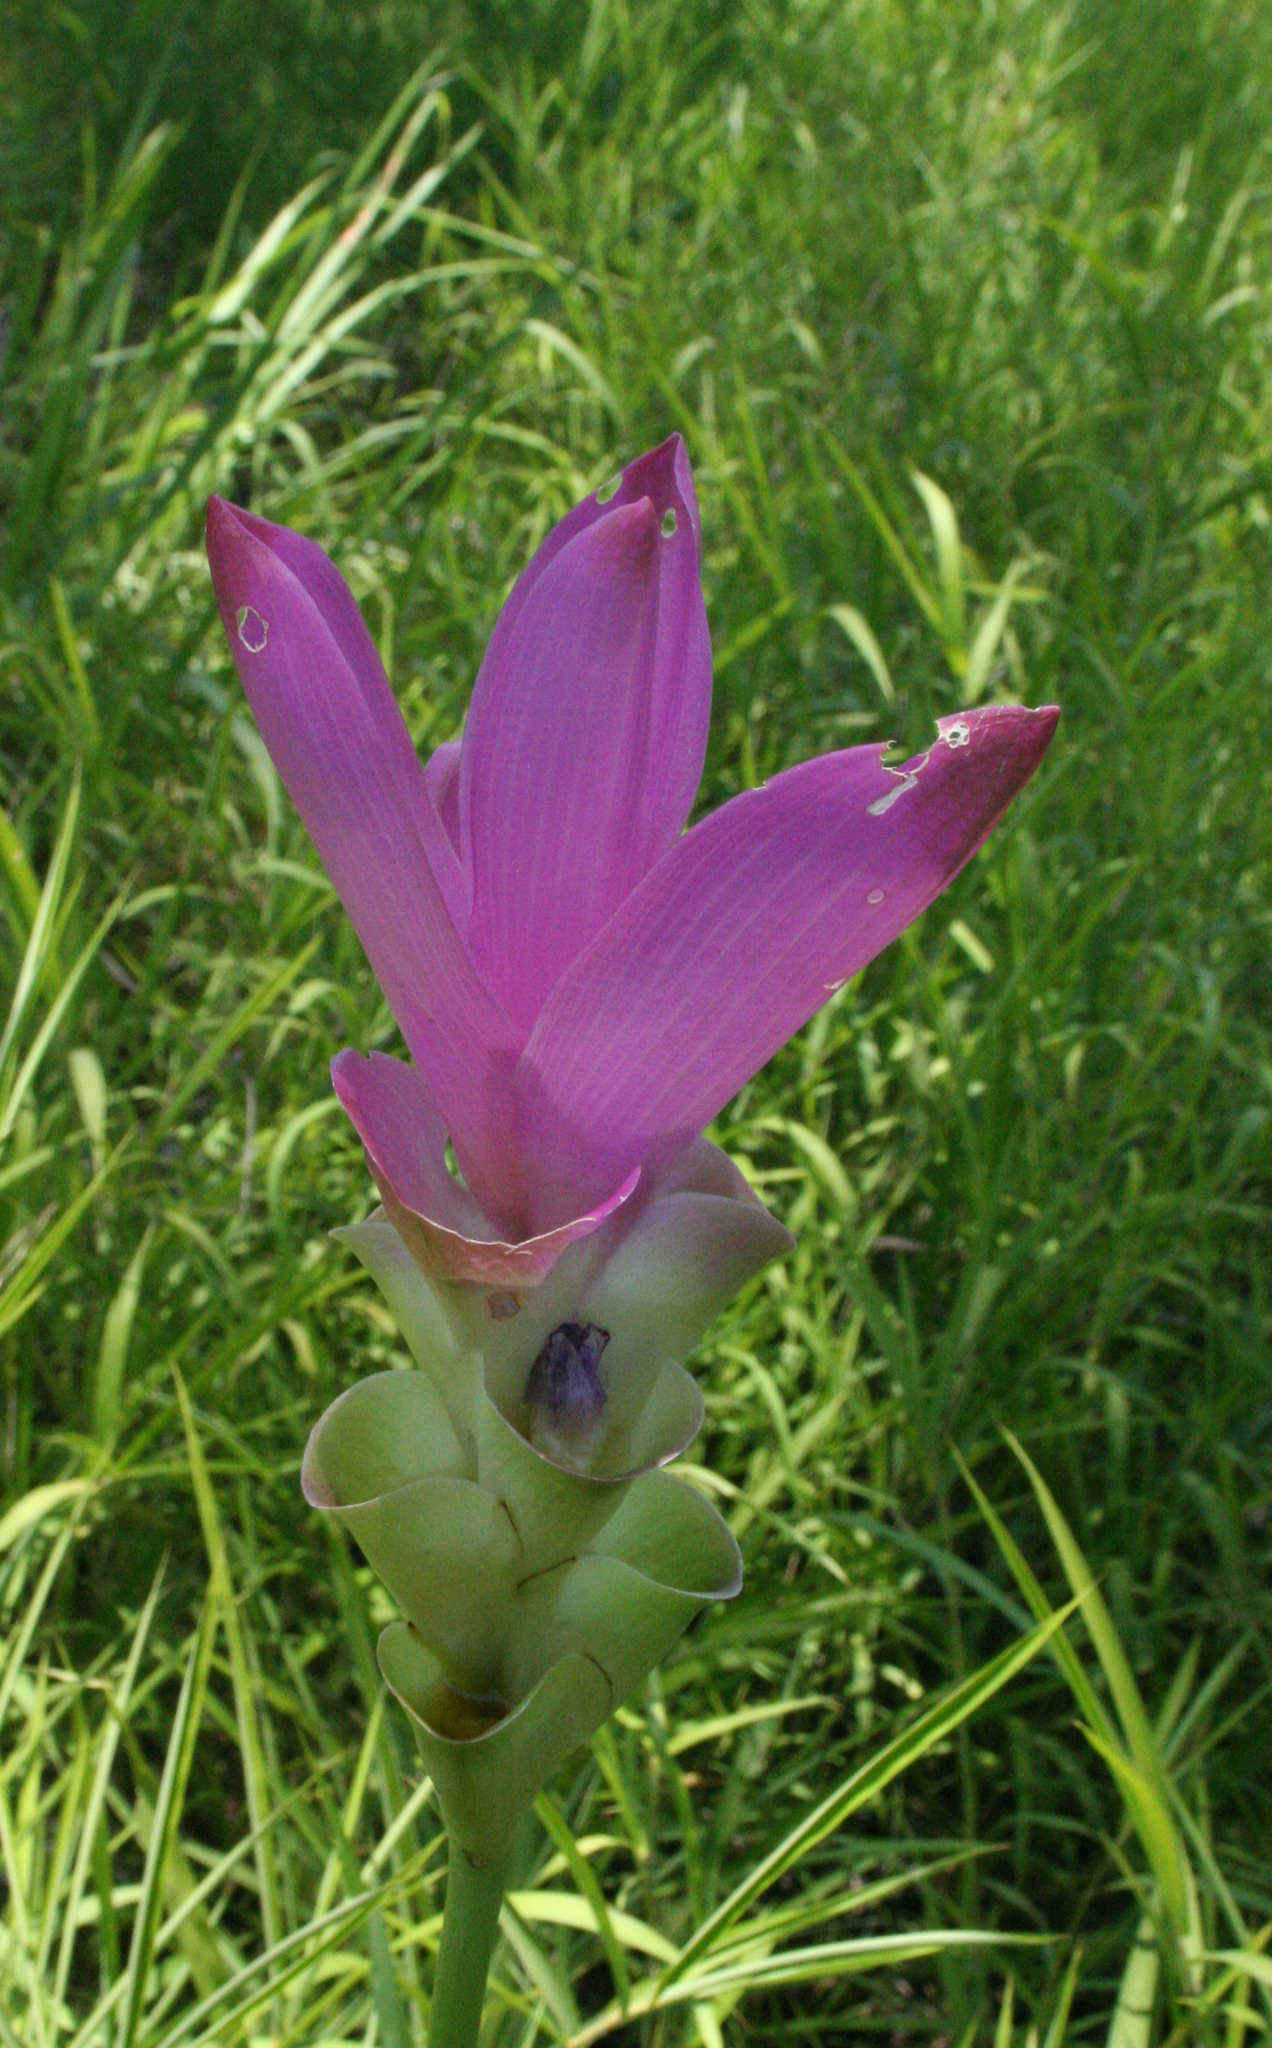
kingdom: Plantae
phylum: Tracheophyta
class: Liliopsida
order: Zingiberales
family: Zingiberaceae
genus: Curcuma
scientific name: Curcuma alismatifolia
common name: Siam tulip
